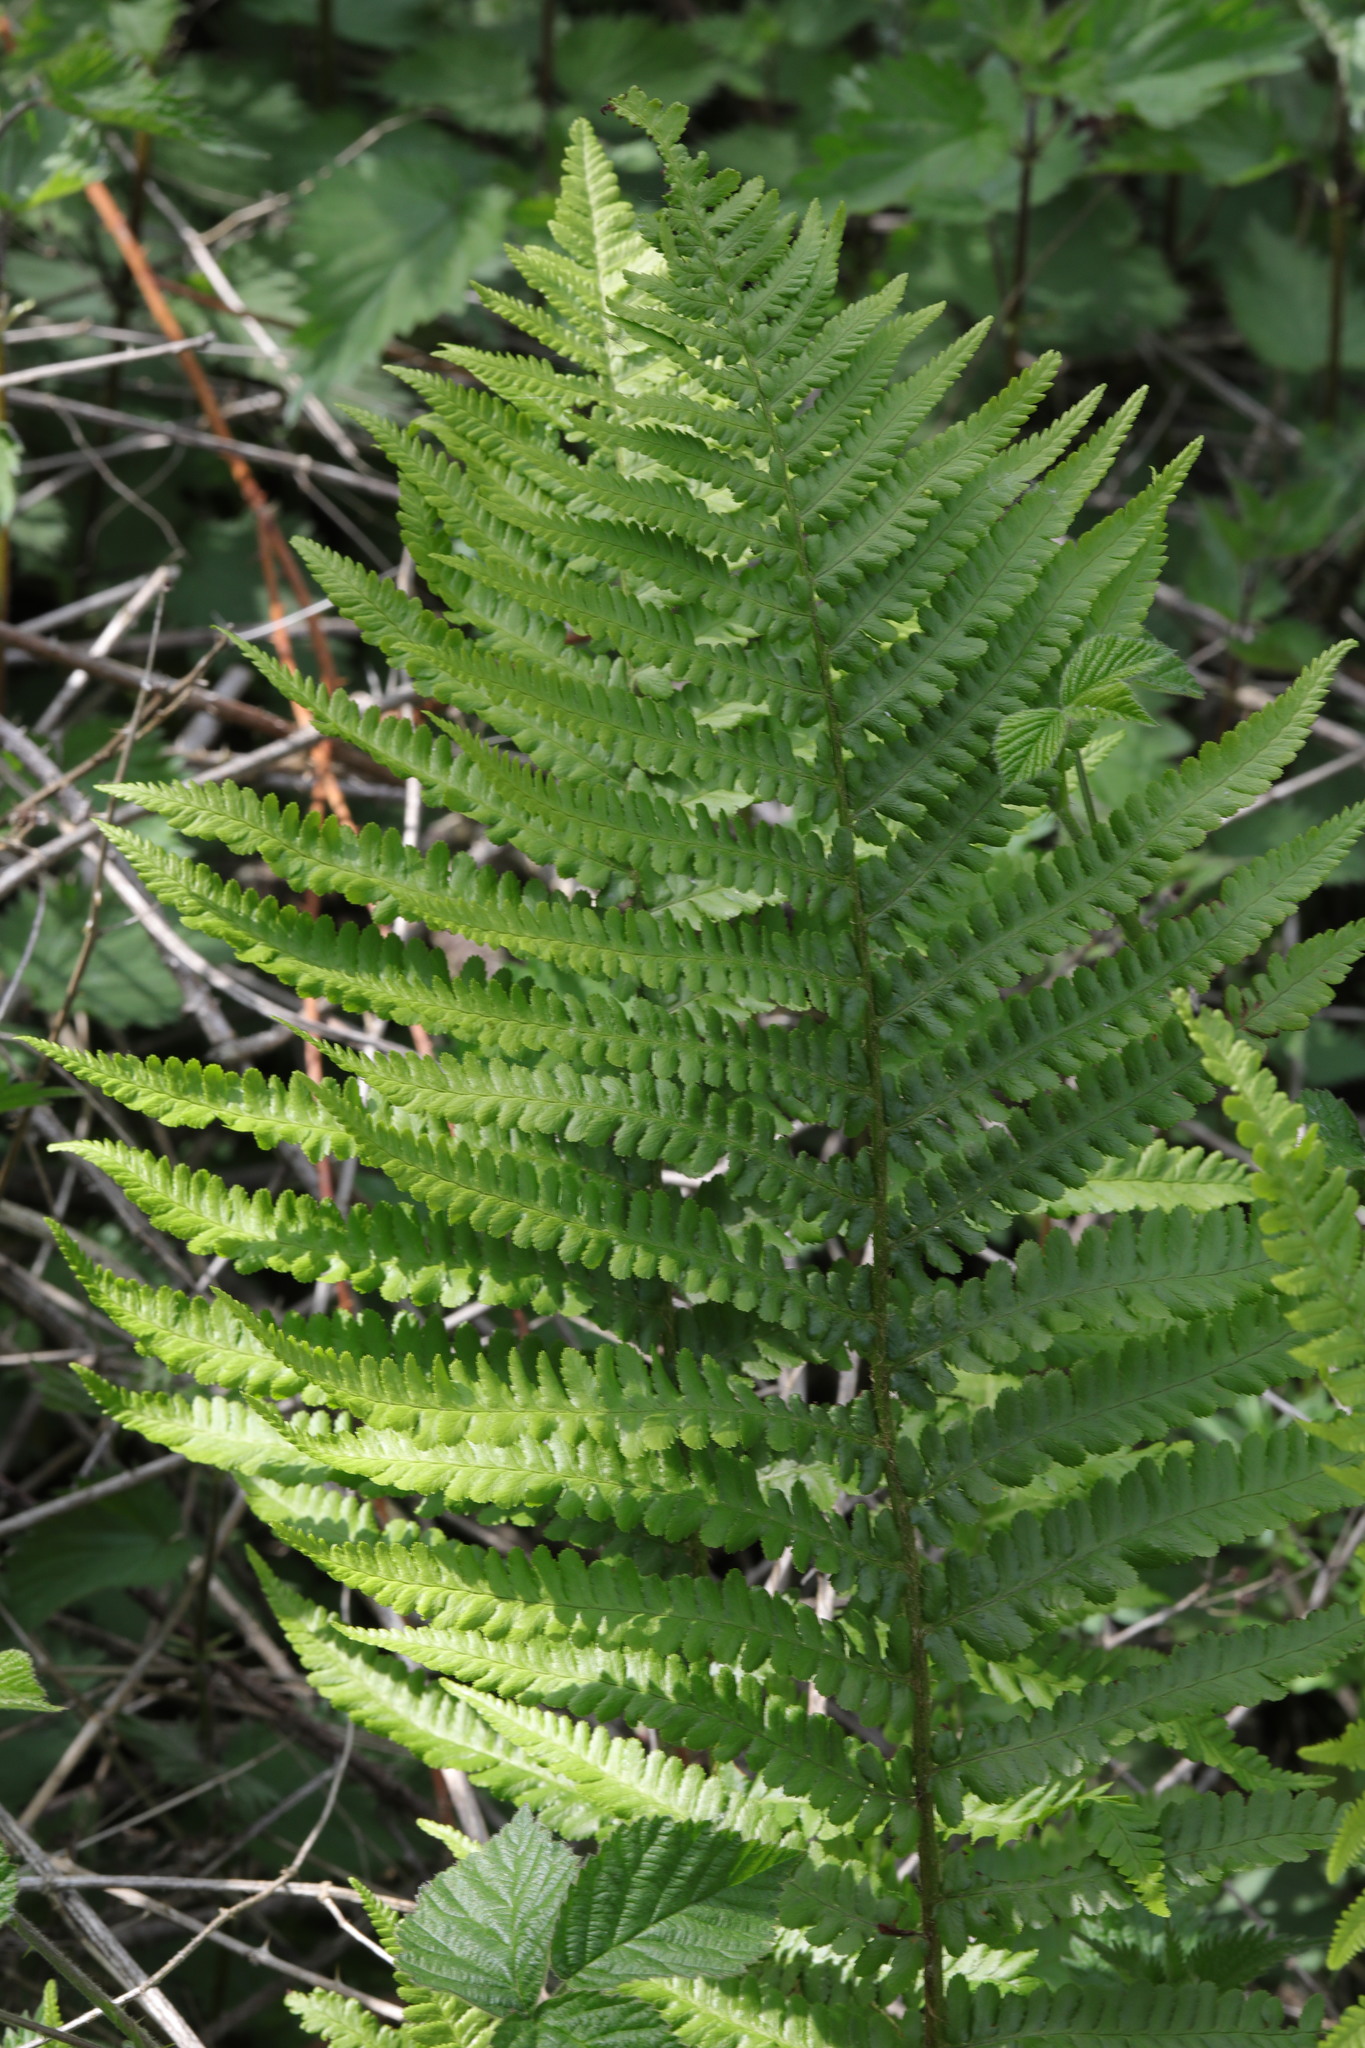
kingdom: Plantae
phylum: Tracheophyta
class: Polypodiopsida
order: Polypodiales
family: Dryopteridaceae
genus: Dryopteris
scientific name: Dryopteris filix-mas
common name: Male fern
